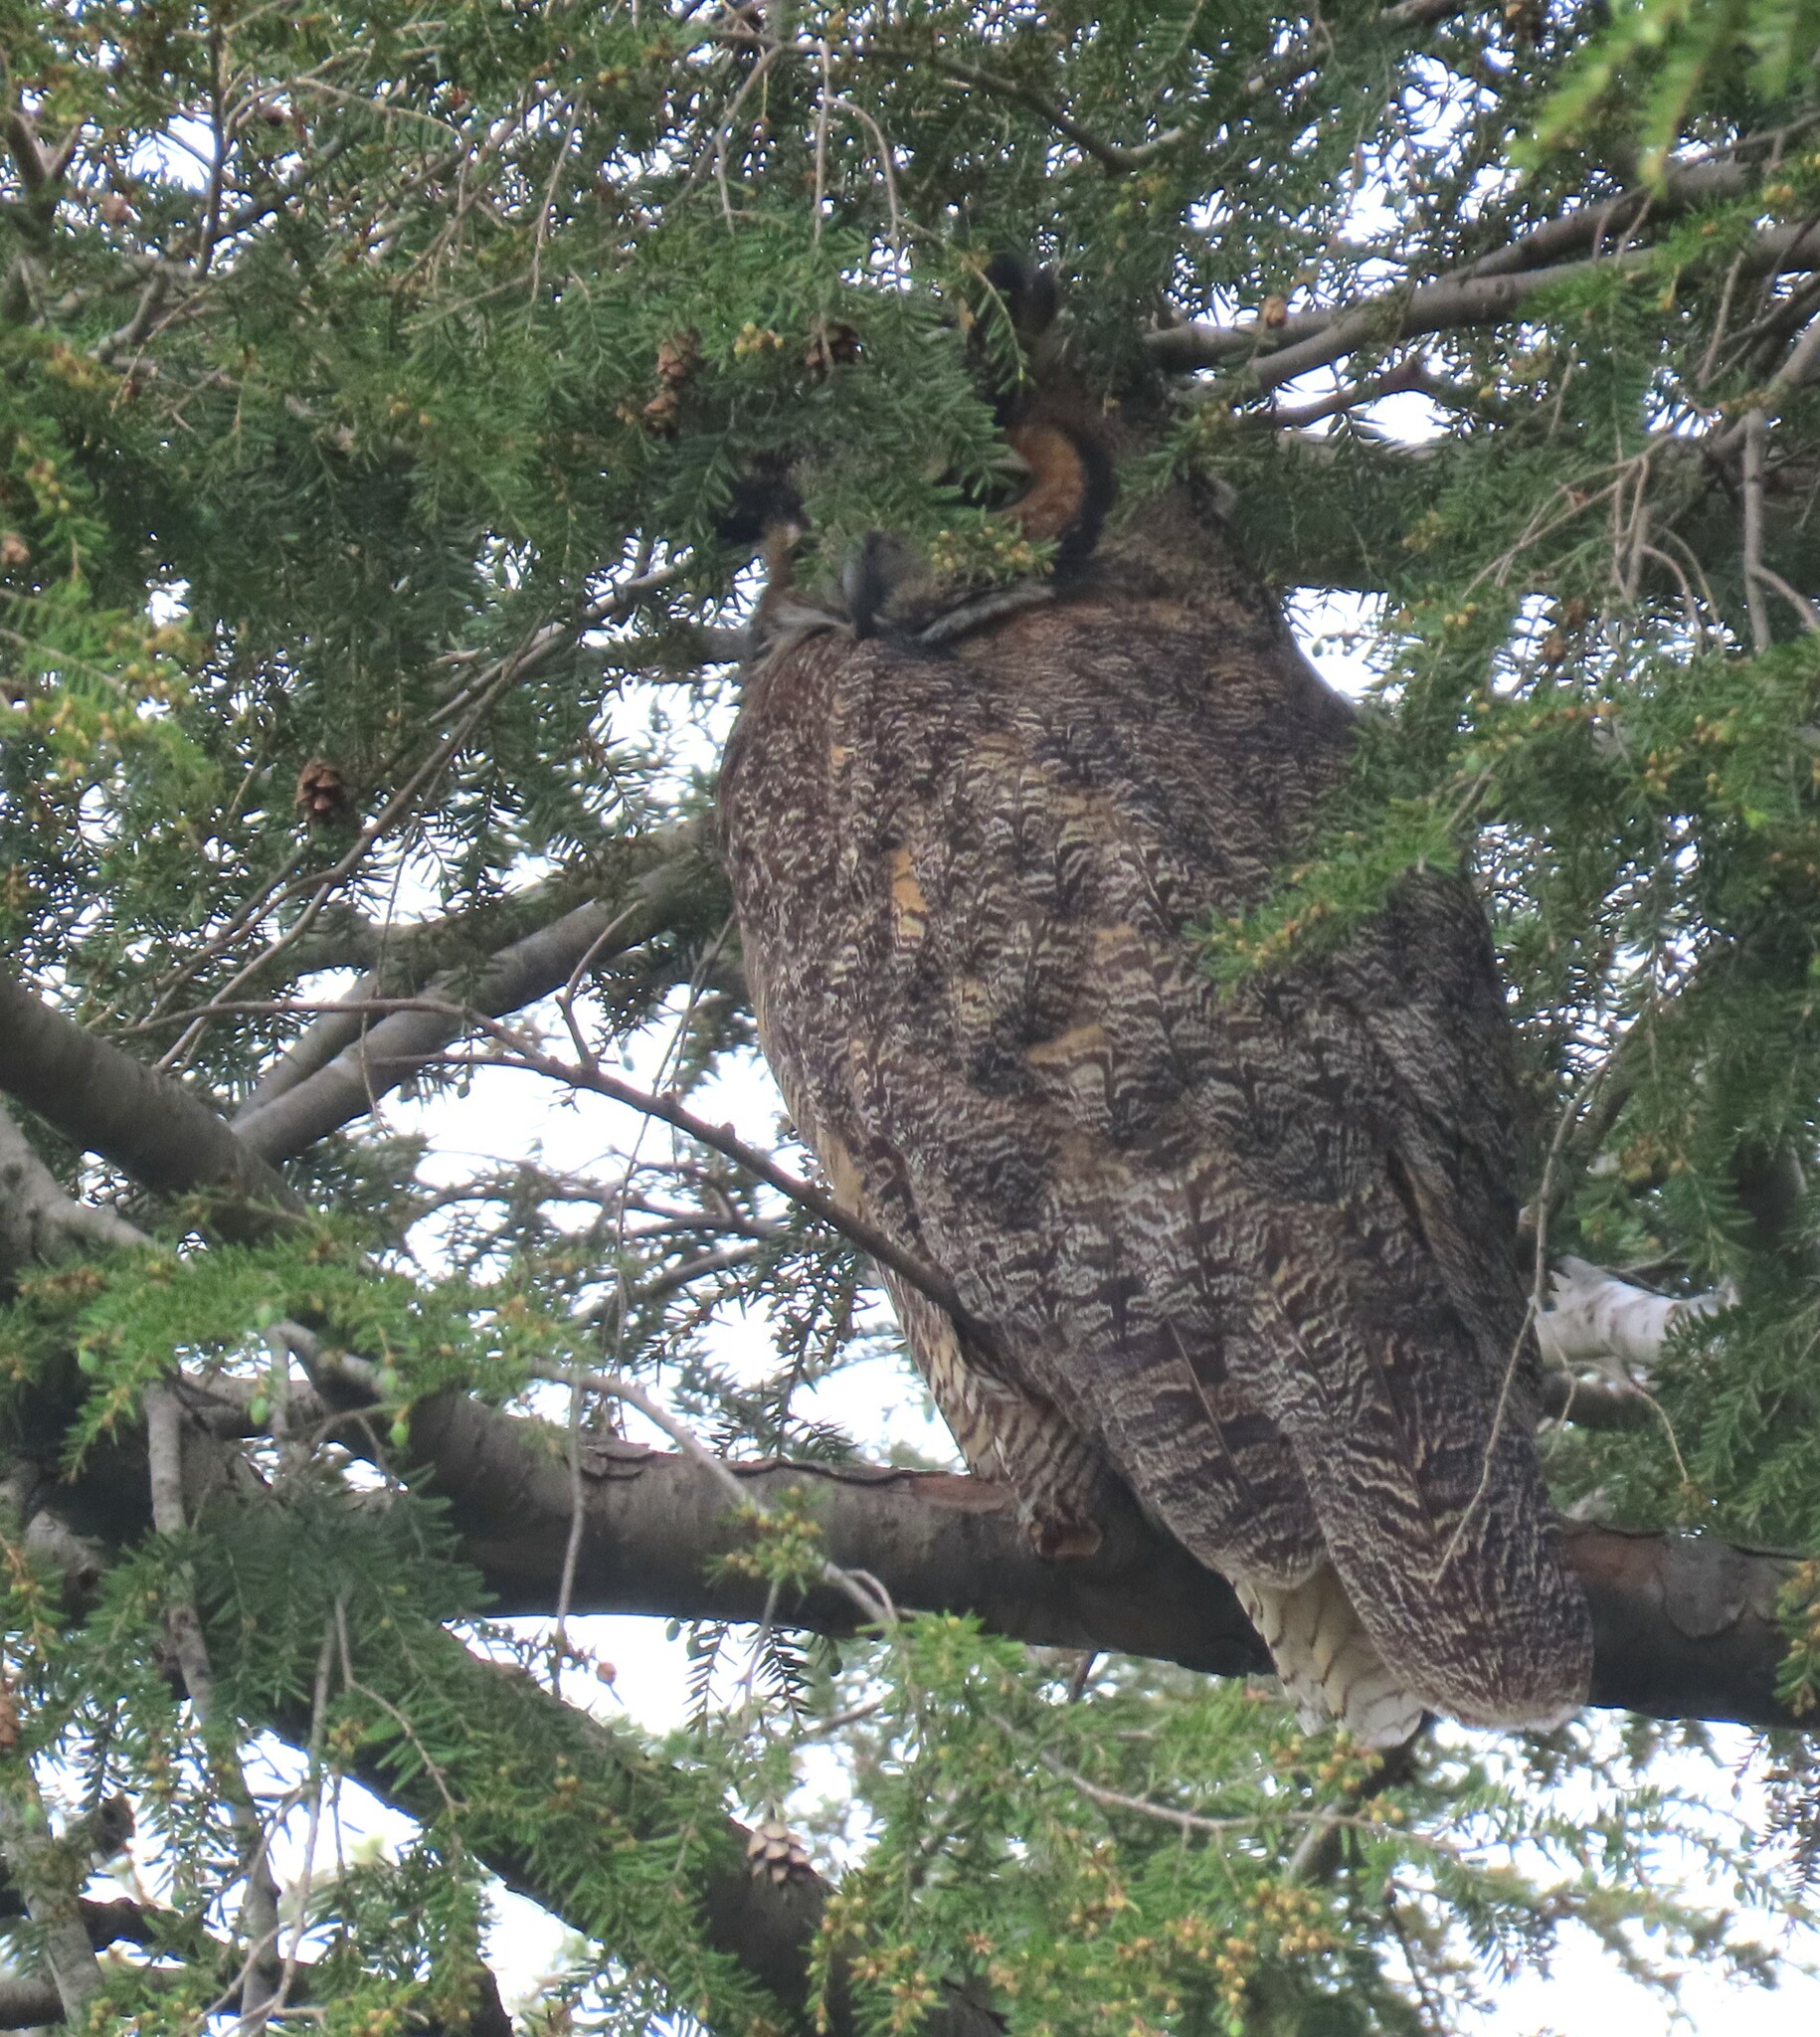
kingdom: Animalia
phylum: Chordata
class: Aves
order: Strigiformes
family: Strigidae
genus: Bubo
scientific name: Bubo virginianus
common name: Great horned owl
